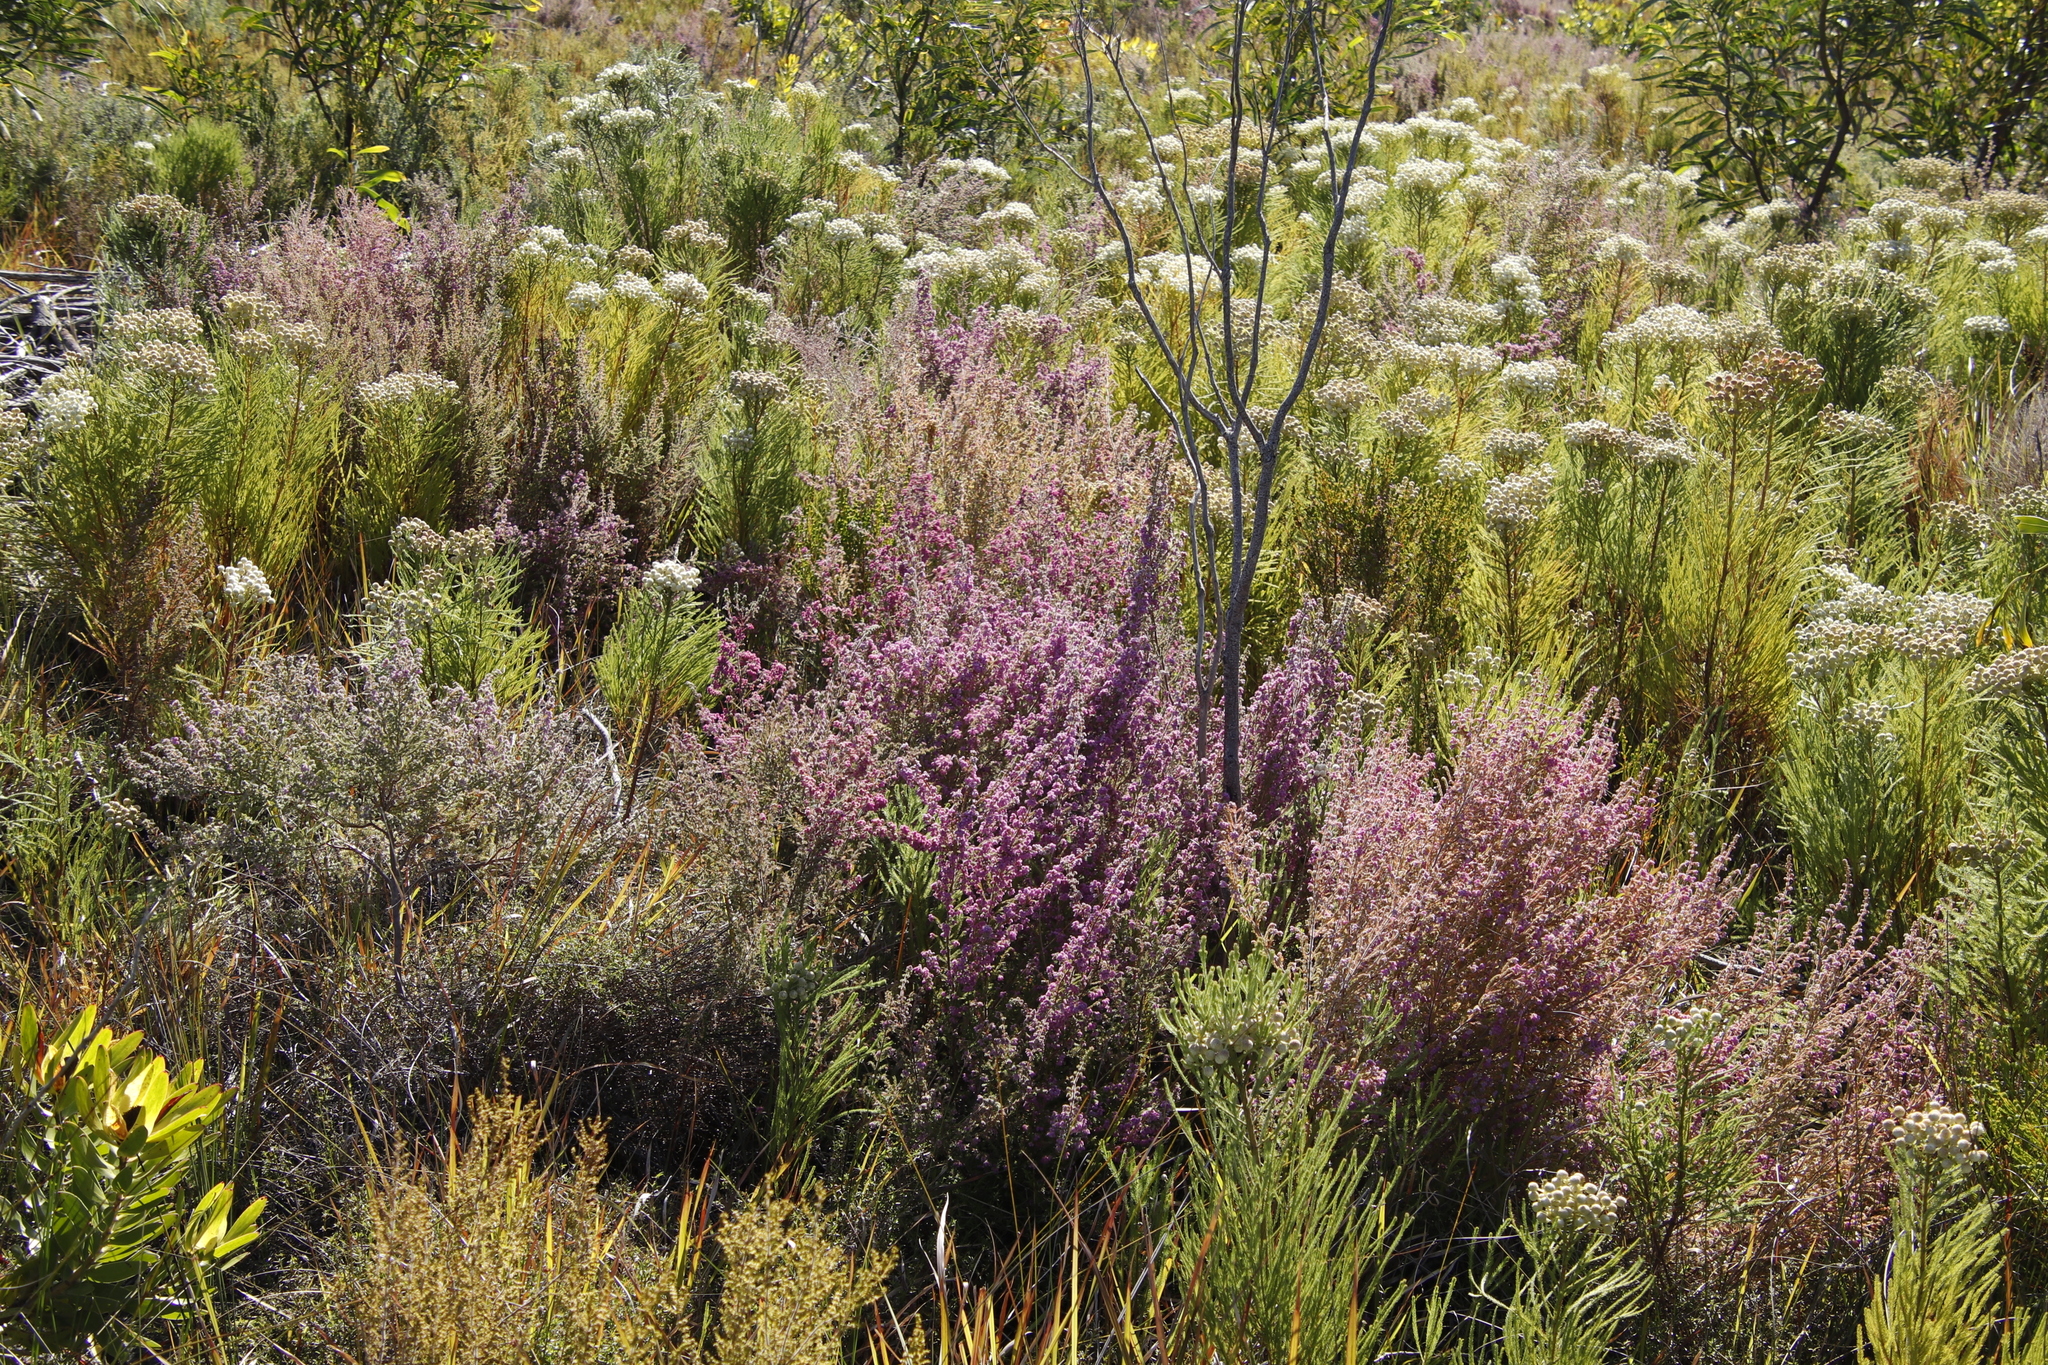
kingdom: Plantae
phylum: Tracheophyta
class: Magnoliopsida
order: Ericales
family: Ericaceae
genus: Erica
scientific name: Erica hirtiflora
